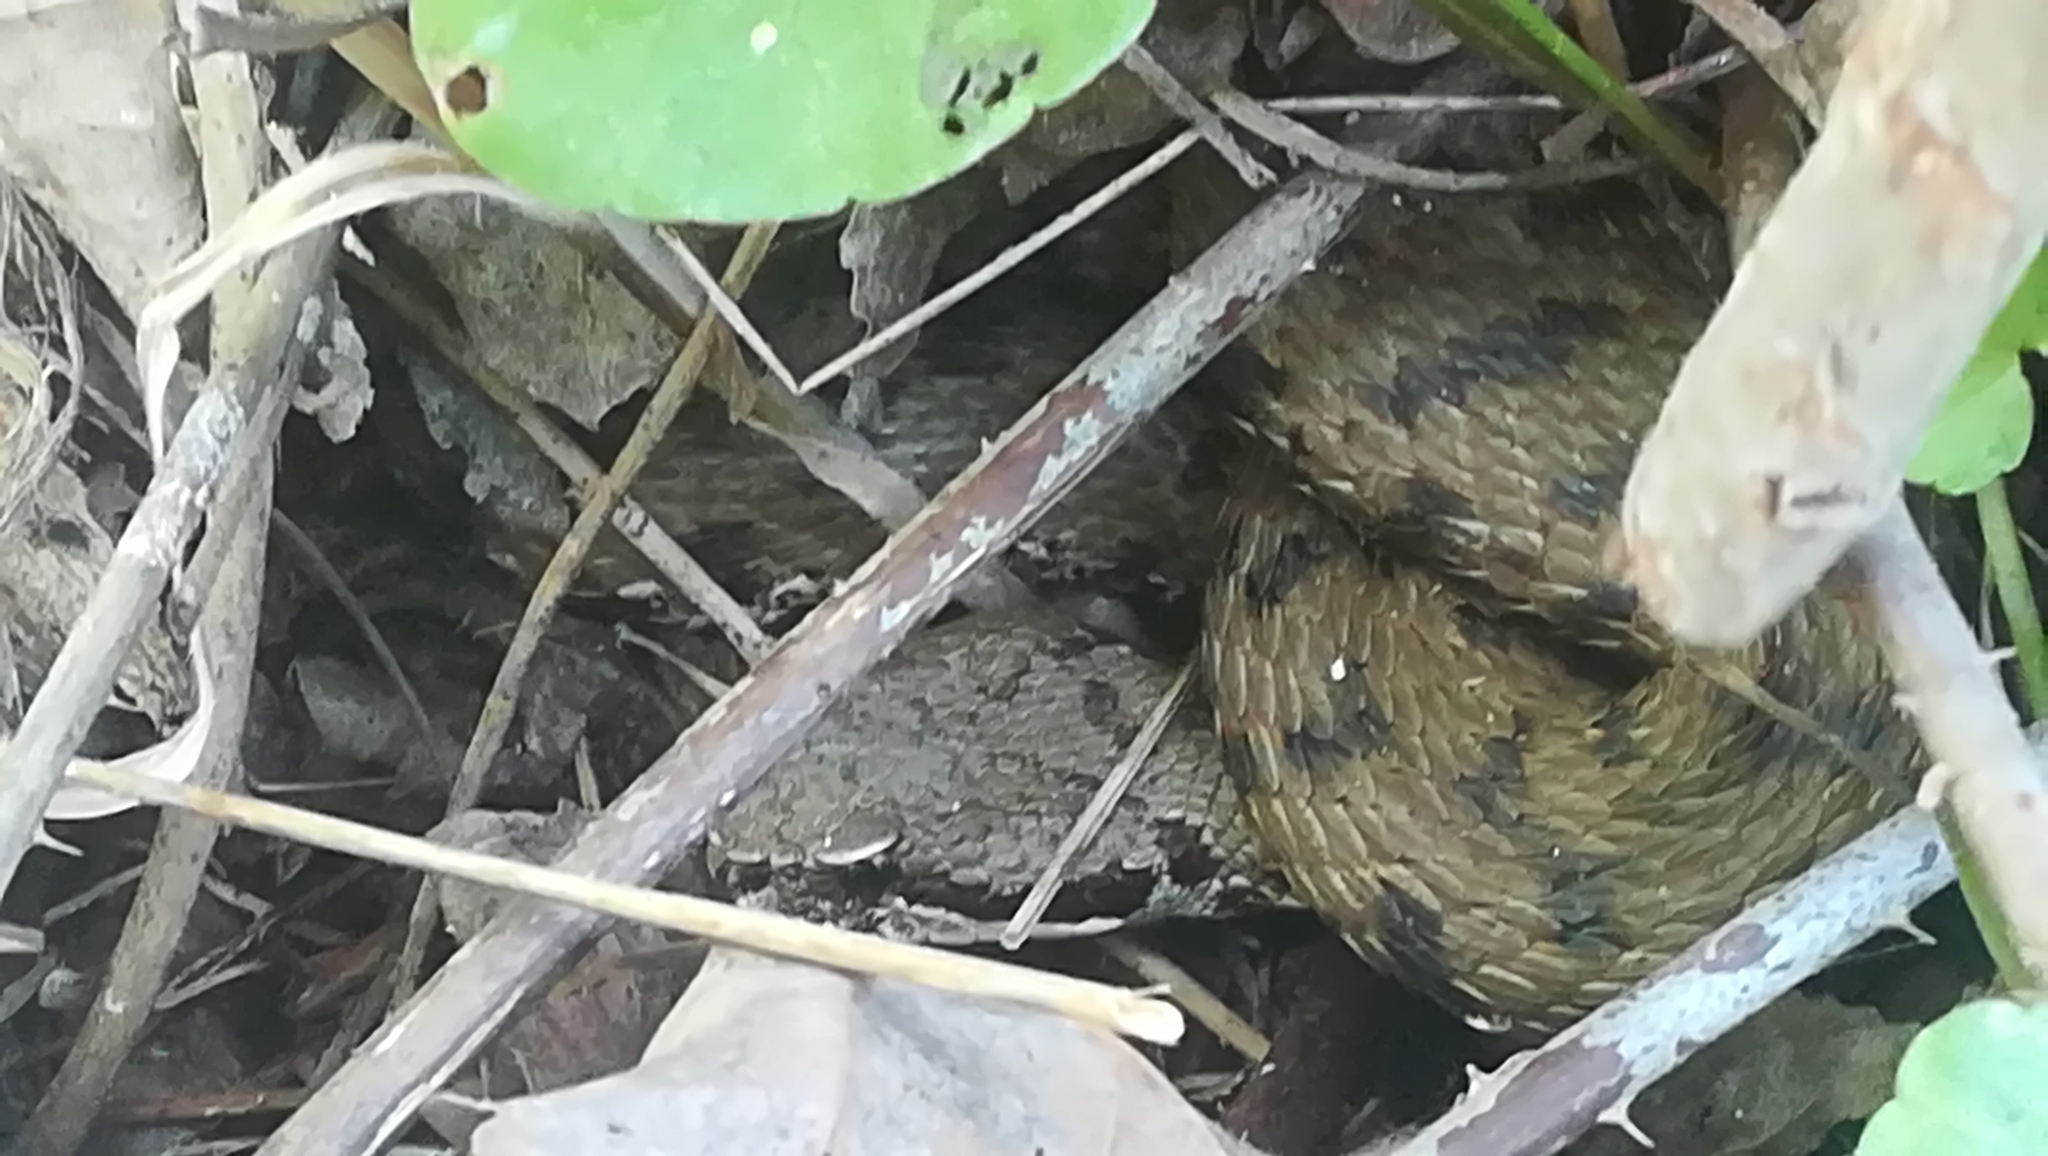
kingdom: Animalia
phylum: Chordata
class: Squamata
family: Viperidae
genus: Vipera
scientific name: Vipera aspis
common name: Asp viper
